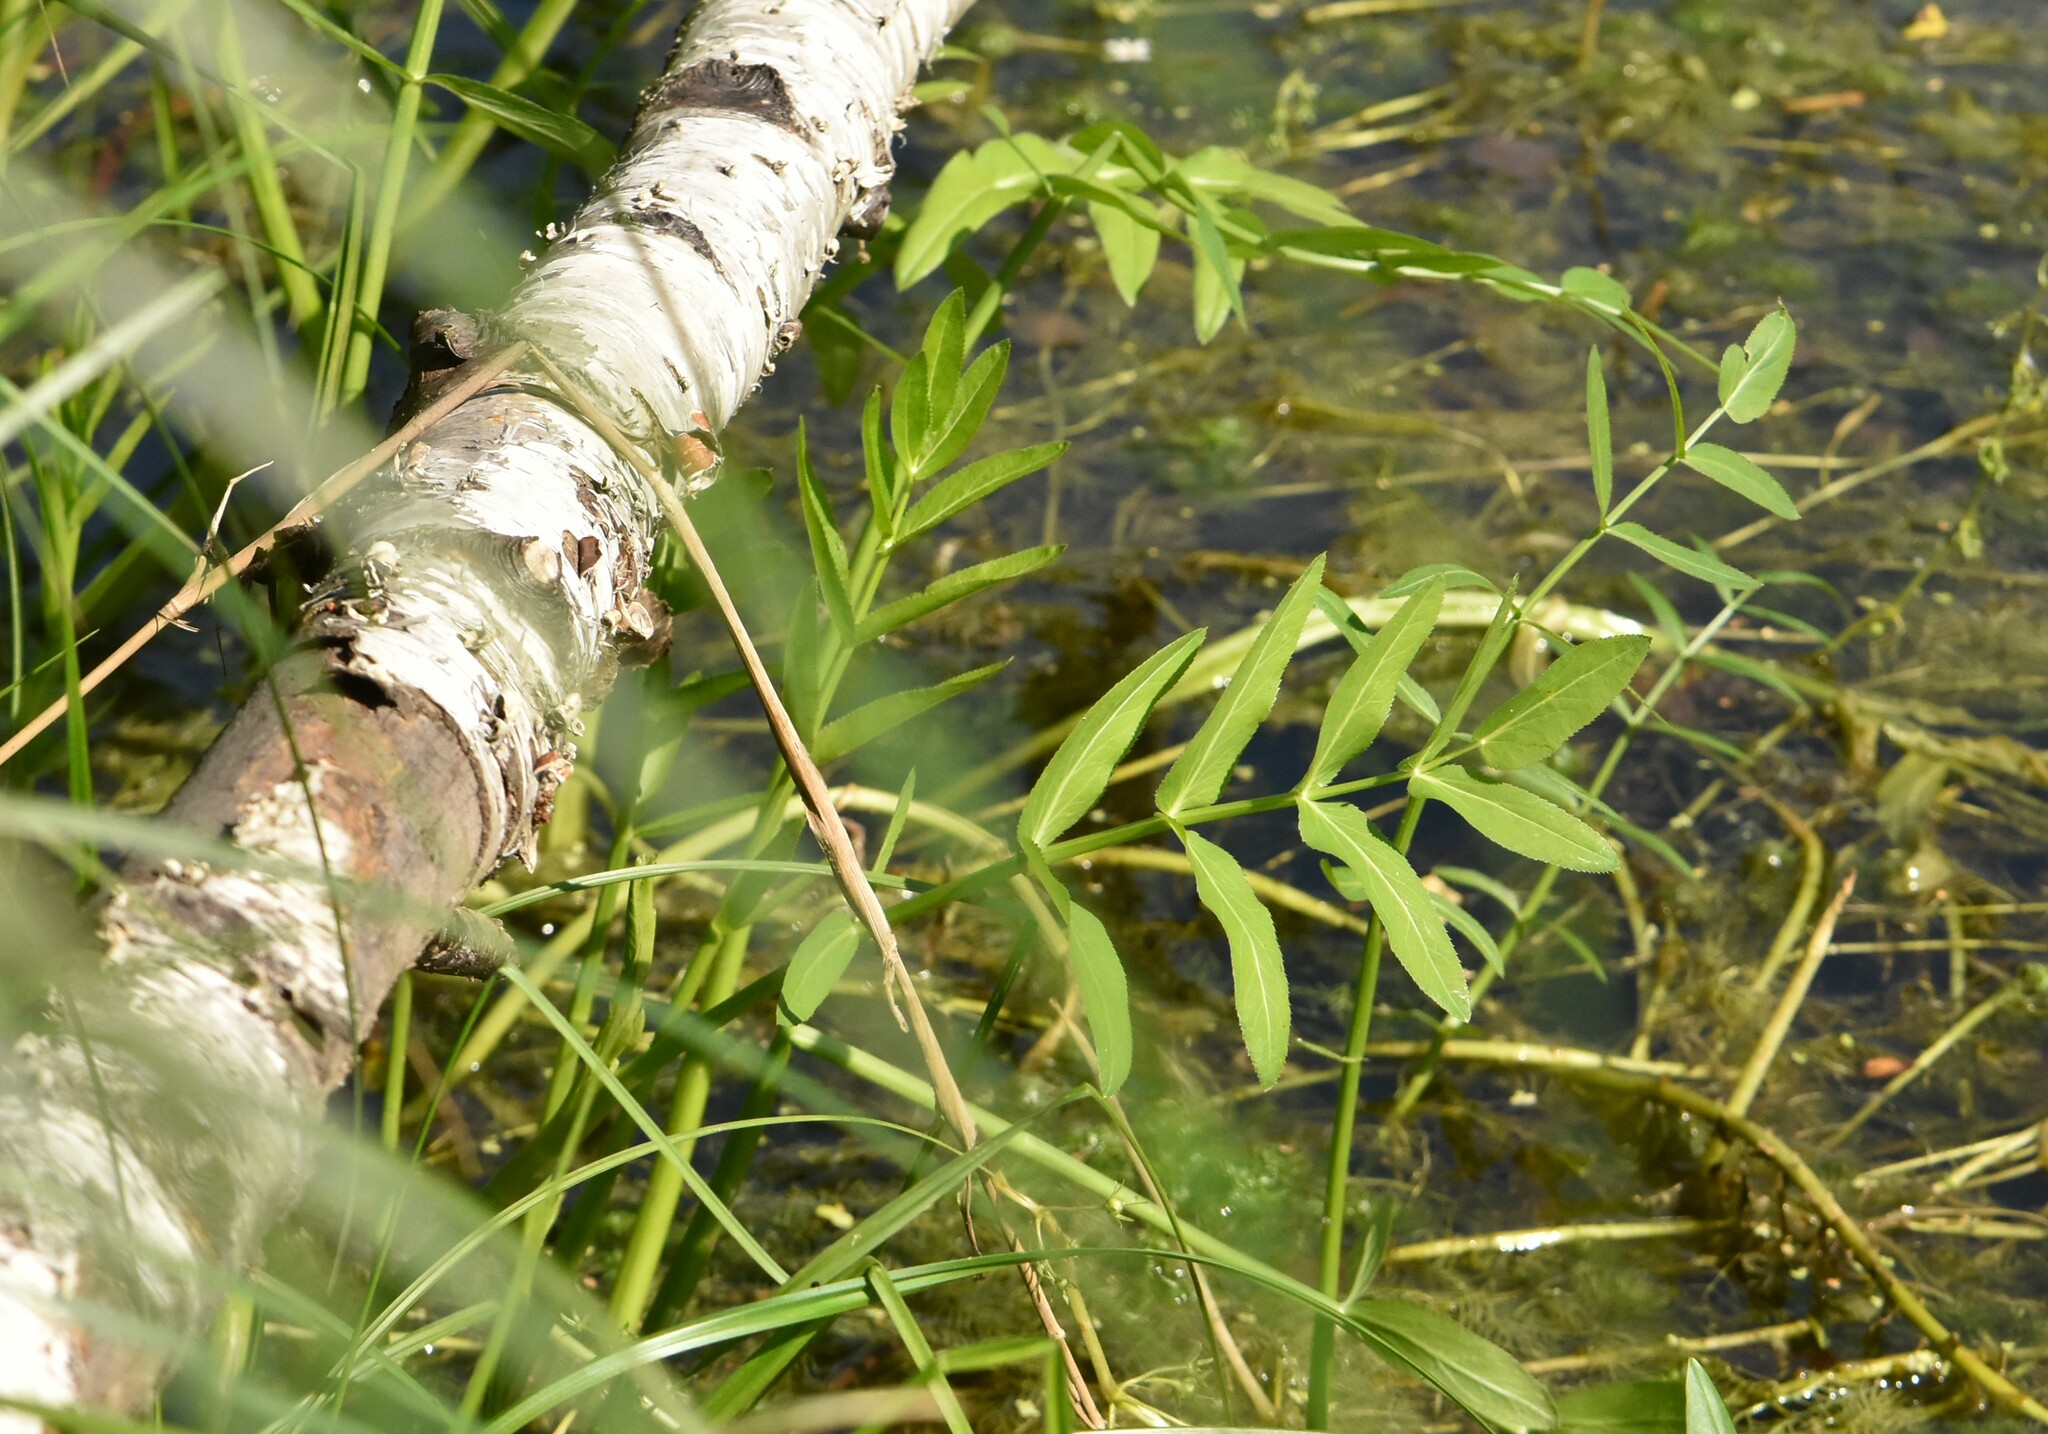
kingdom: Plantae
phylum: Tracheophyta
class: Magnoliopsida
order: Apiales
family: Apiaceae
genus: Sium
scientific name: Sium latifolium
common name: Greater water-parsnip
